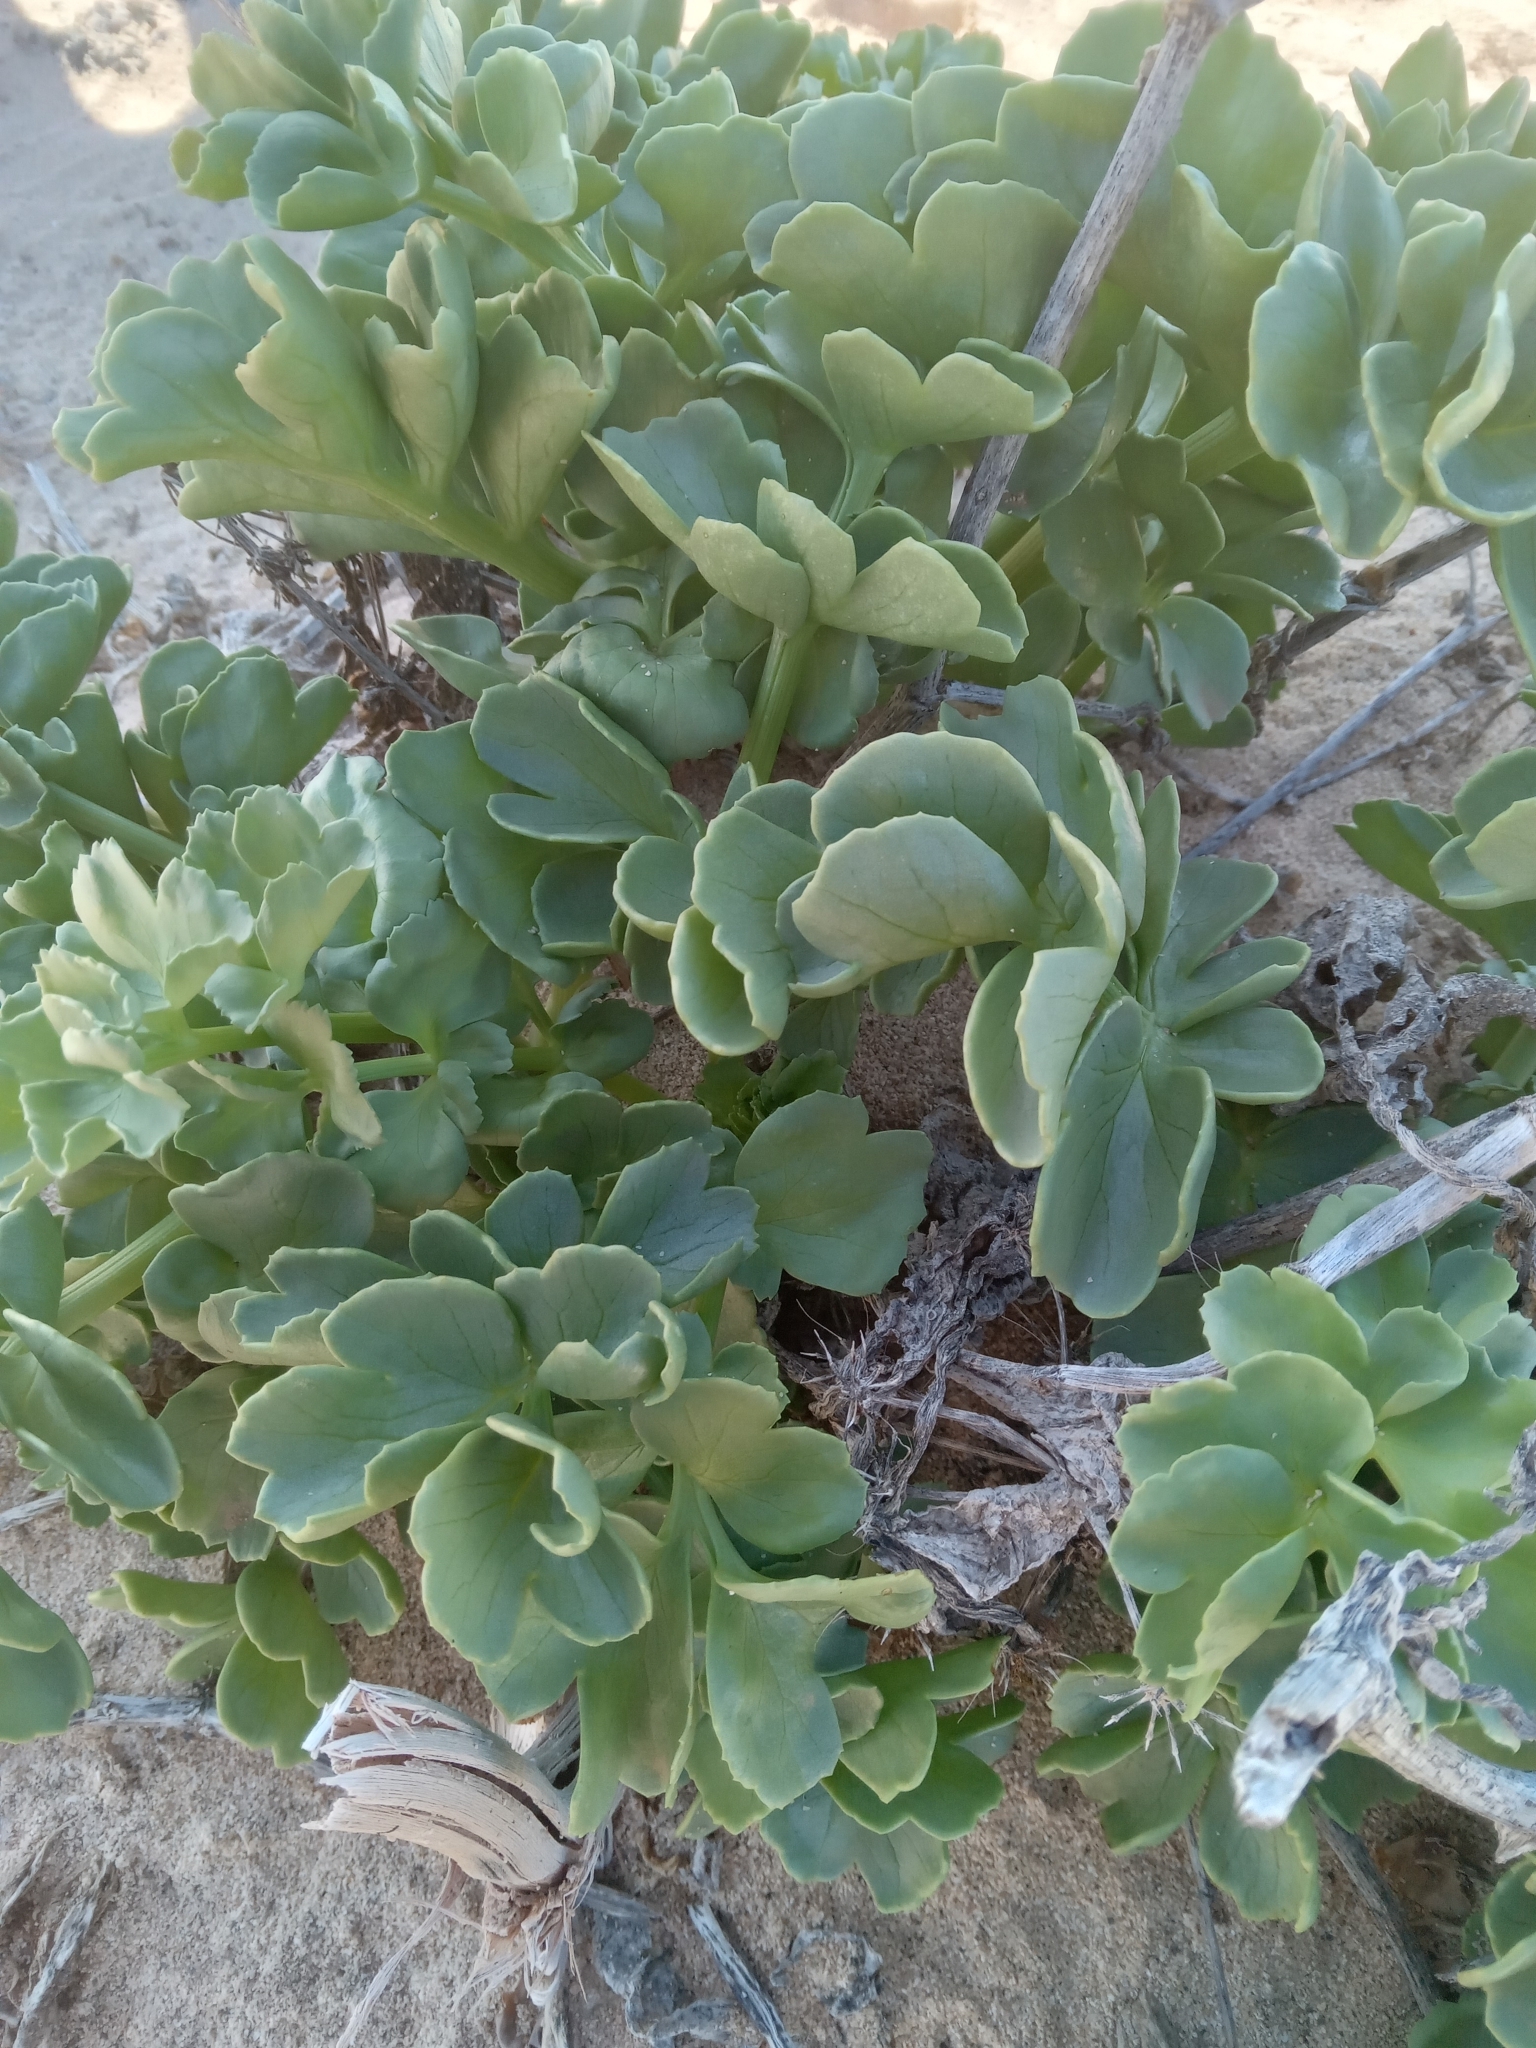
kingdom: Plantae
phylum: Tracheophyta
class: Magnoliopsida
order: Apiales
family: Apiaceae
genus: Astydamia
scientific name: Astydamia latifolia
